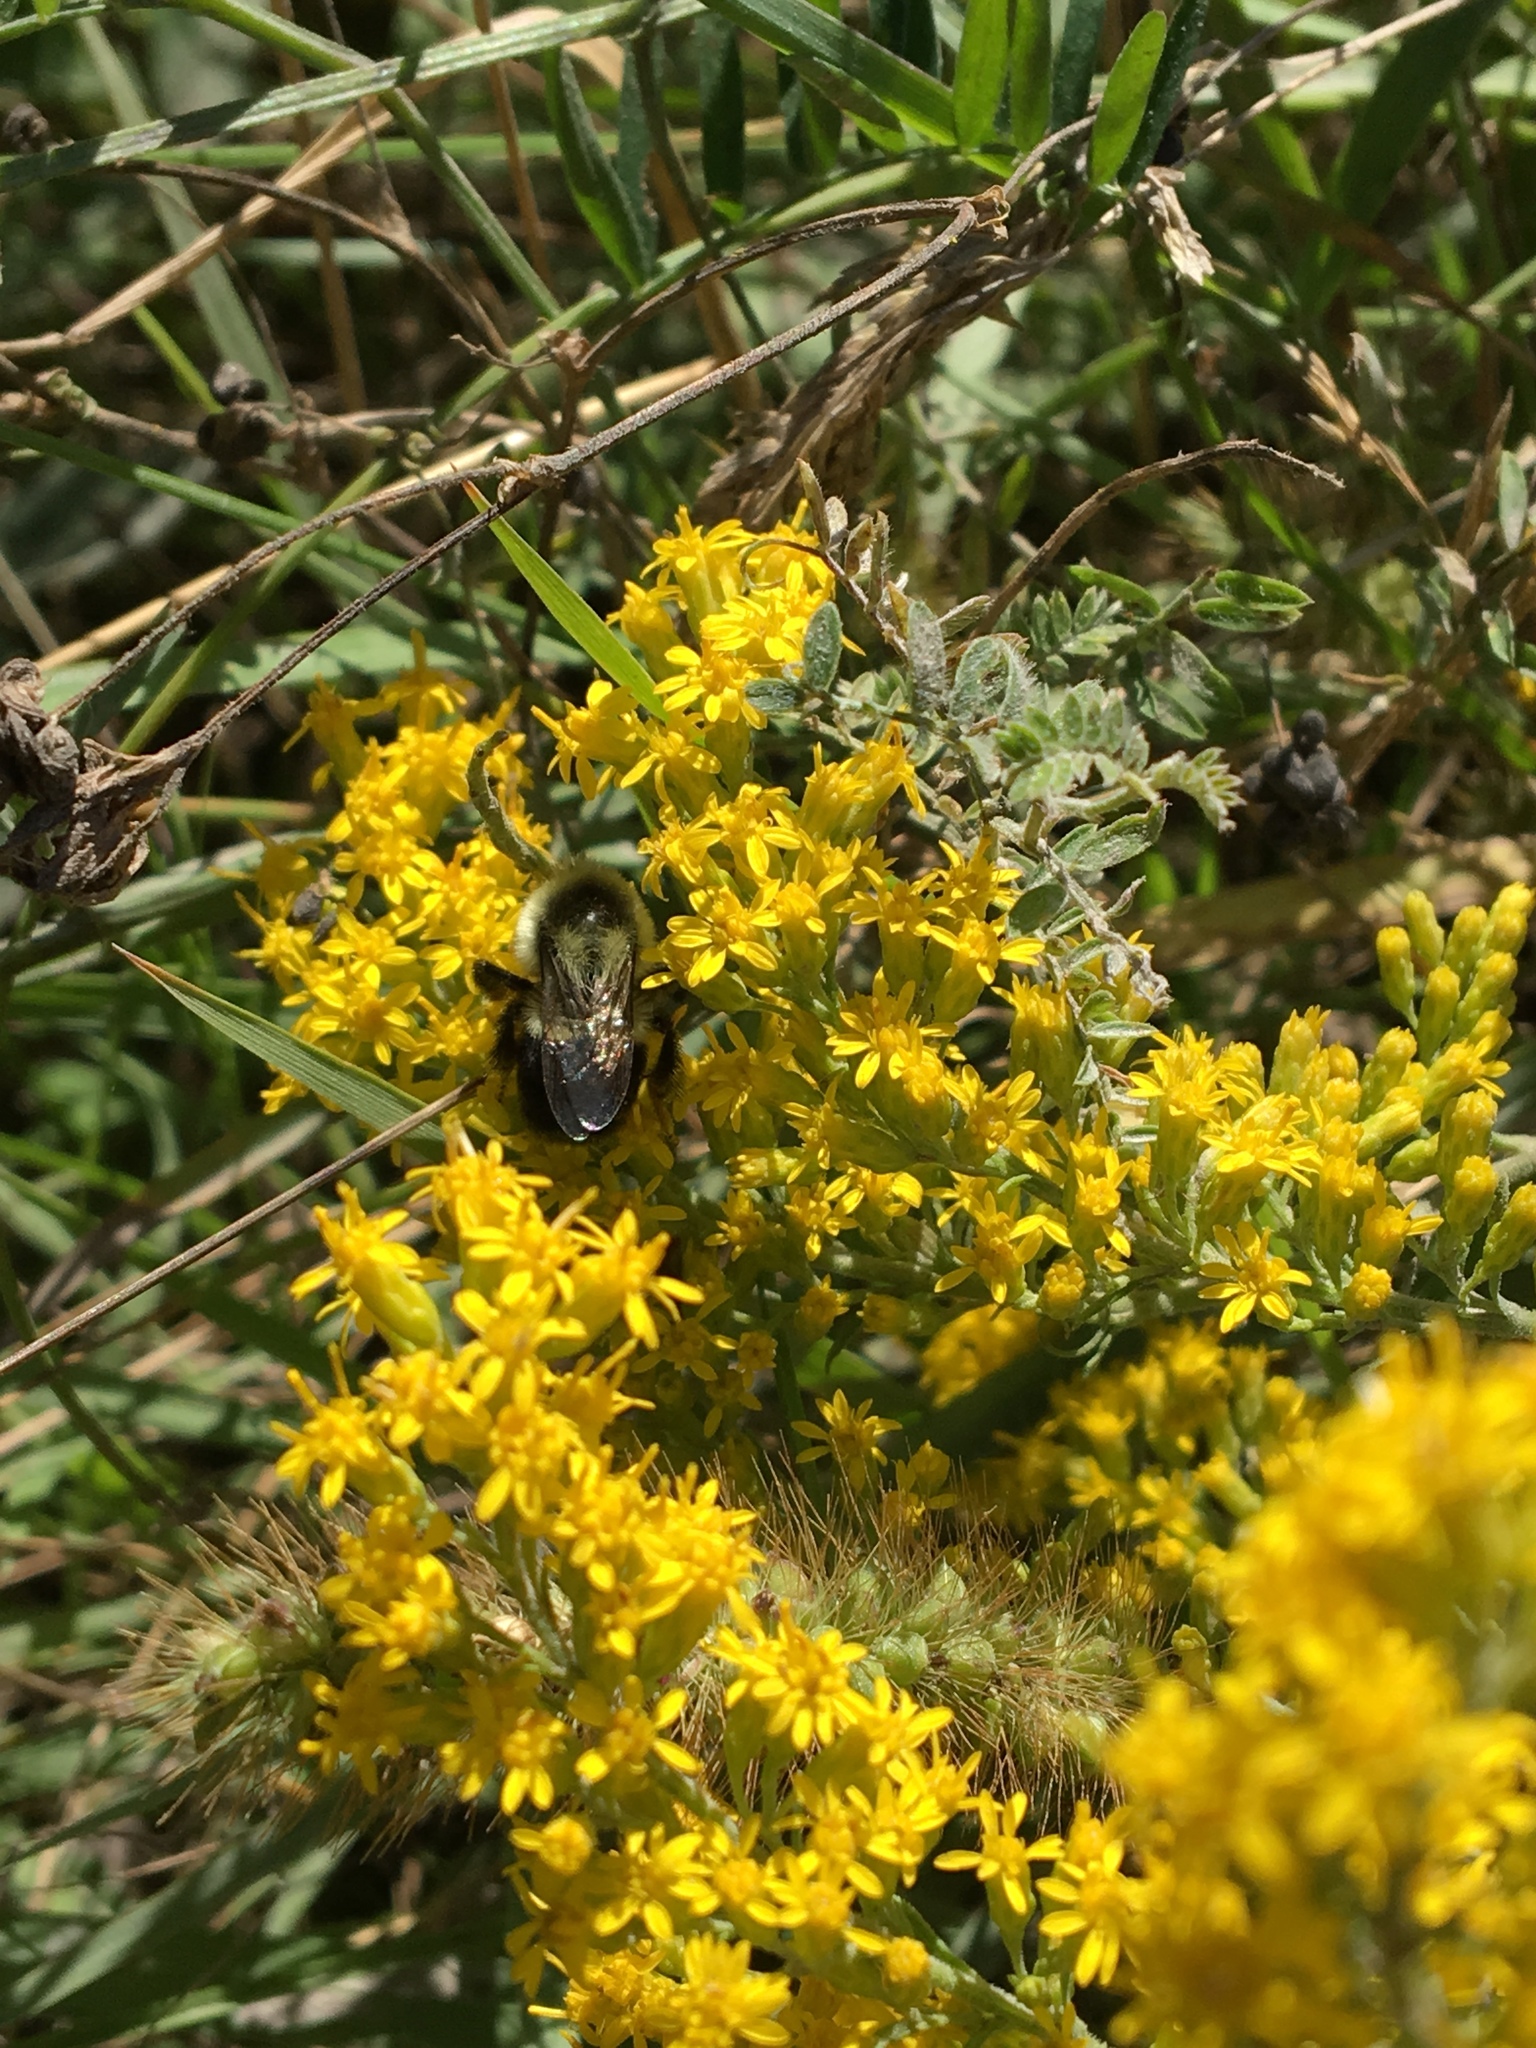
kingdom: Animalia
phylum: Arthropoda
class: Insecta
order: Hymenoptera
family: Apidae
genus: Bombus
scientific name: Bombus impatiens
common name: Common eastern bumble bee
